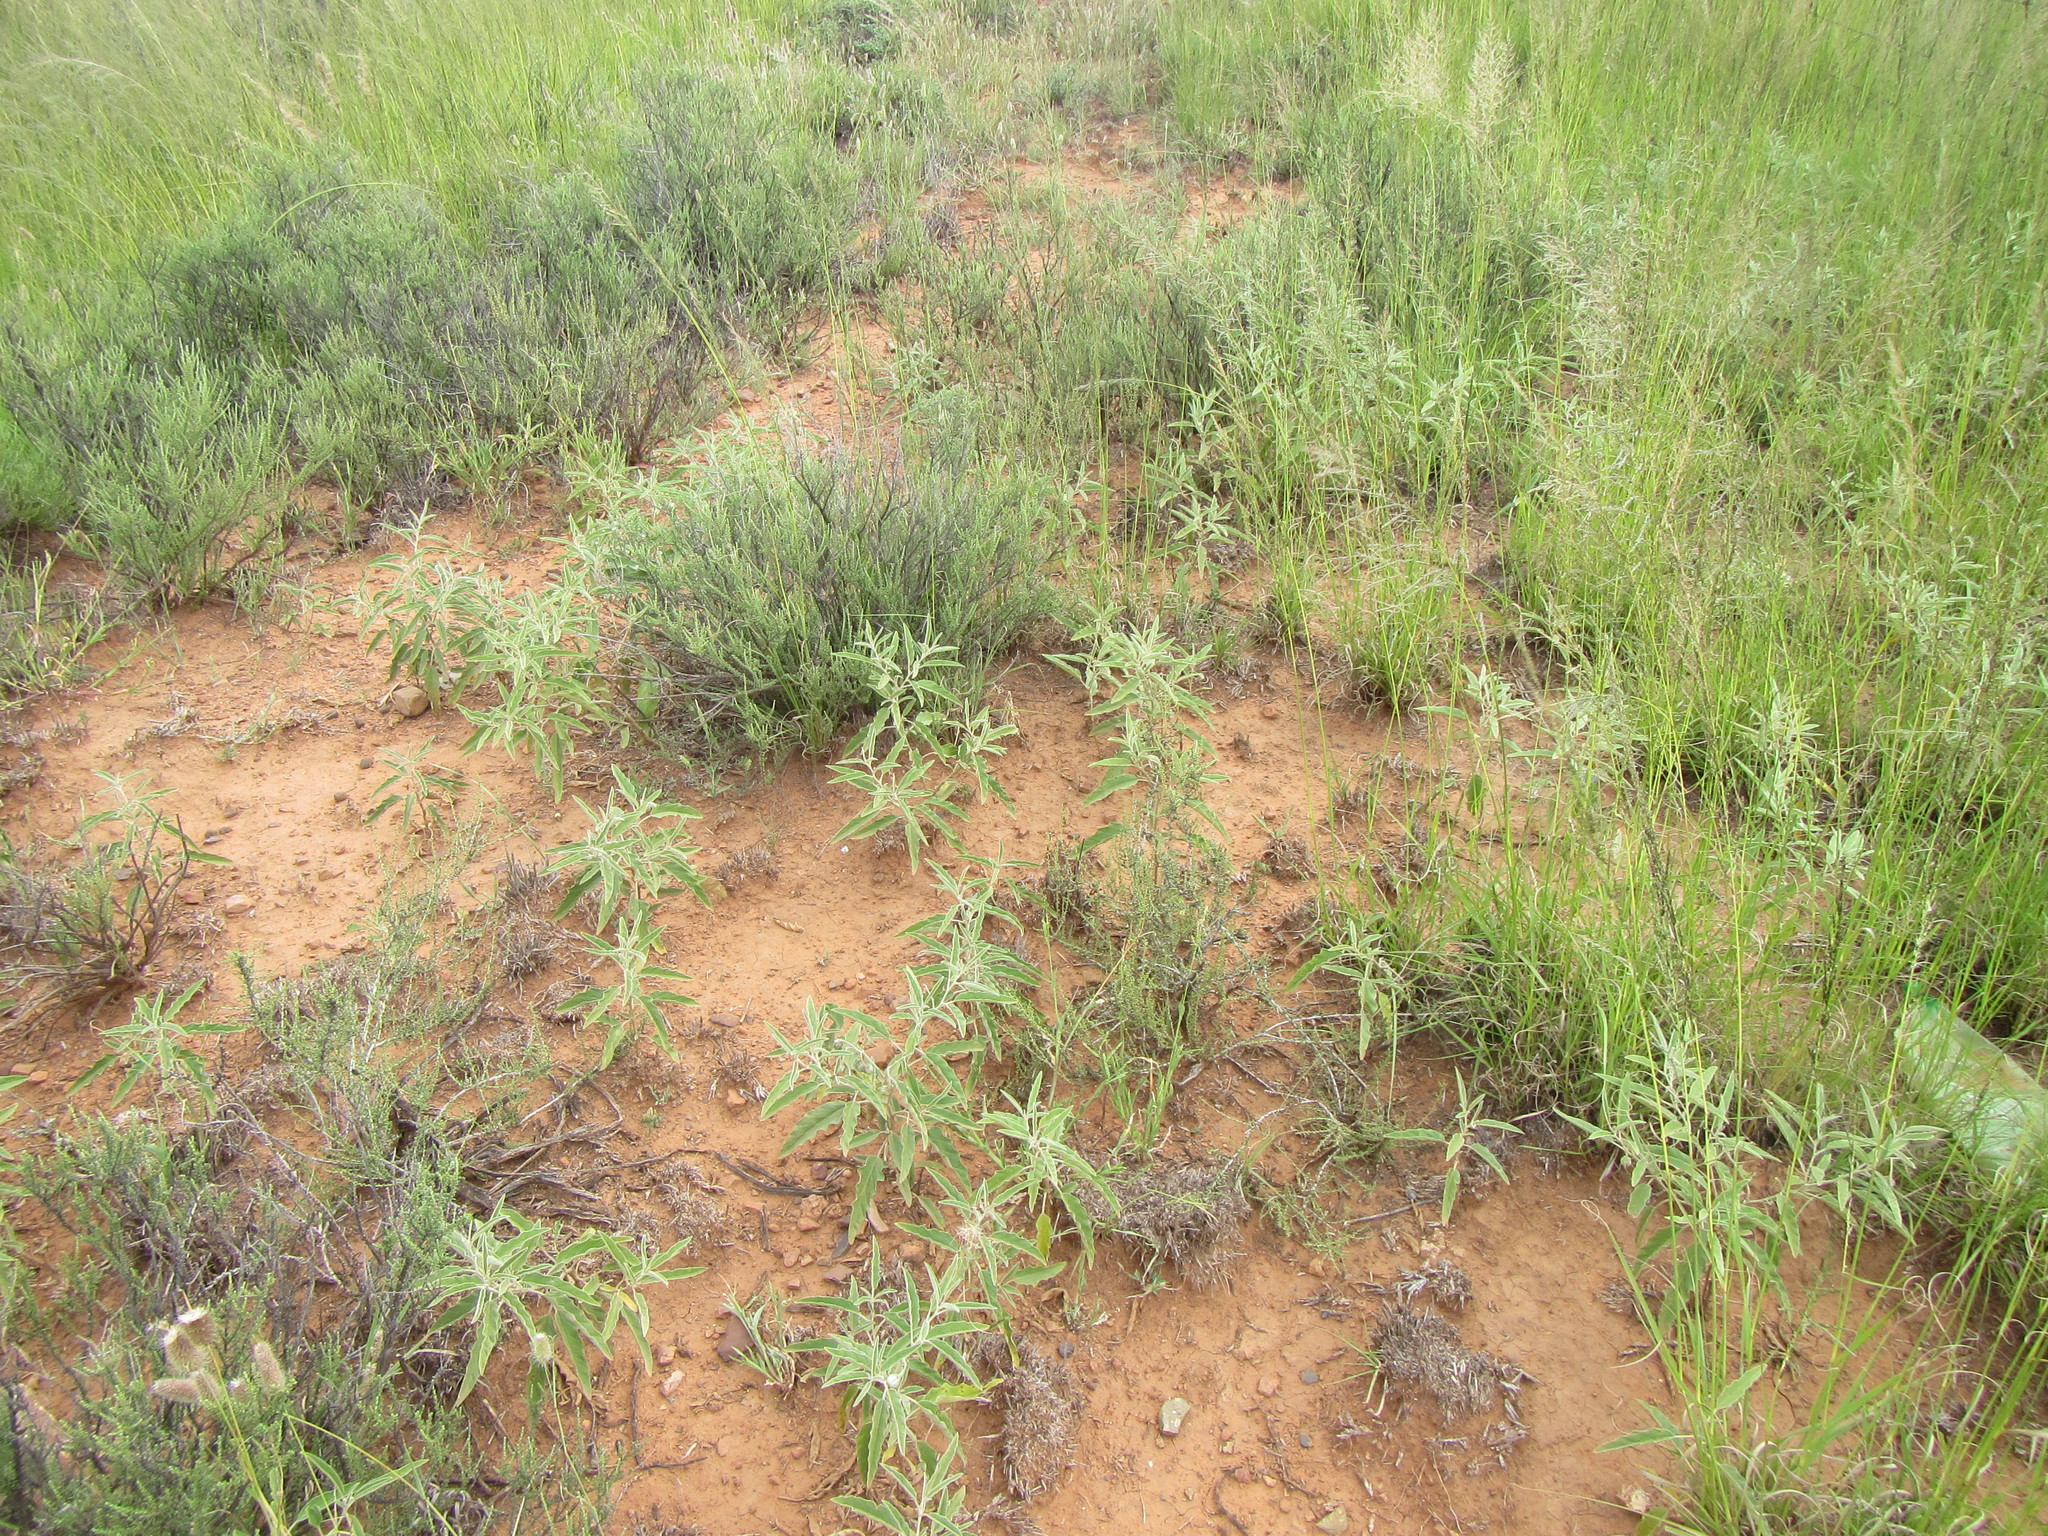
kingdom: Plantae
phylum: Tracheophyta
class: Magnoliopsida
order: Solanales
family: Solanaceae
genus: Solanum
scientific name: Solanum elaeagnifolium
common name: Silverleaf nightshade
